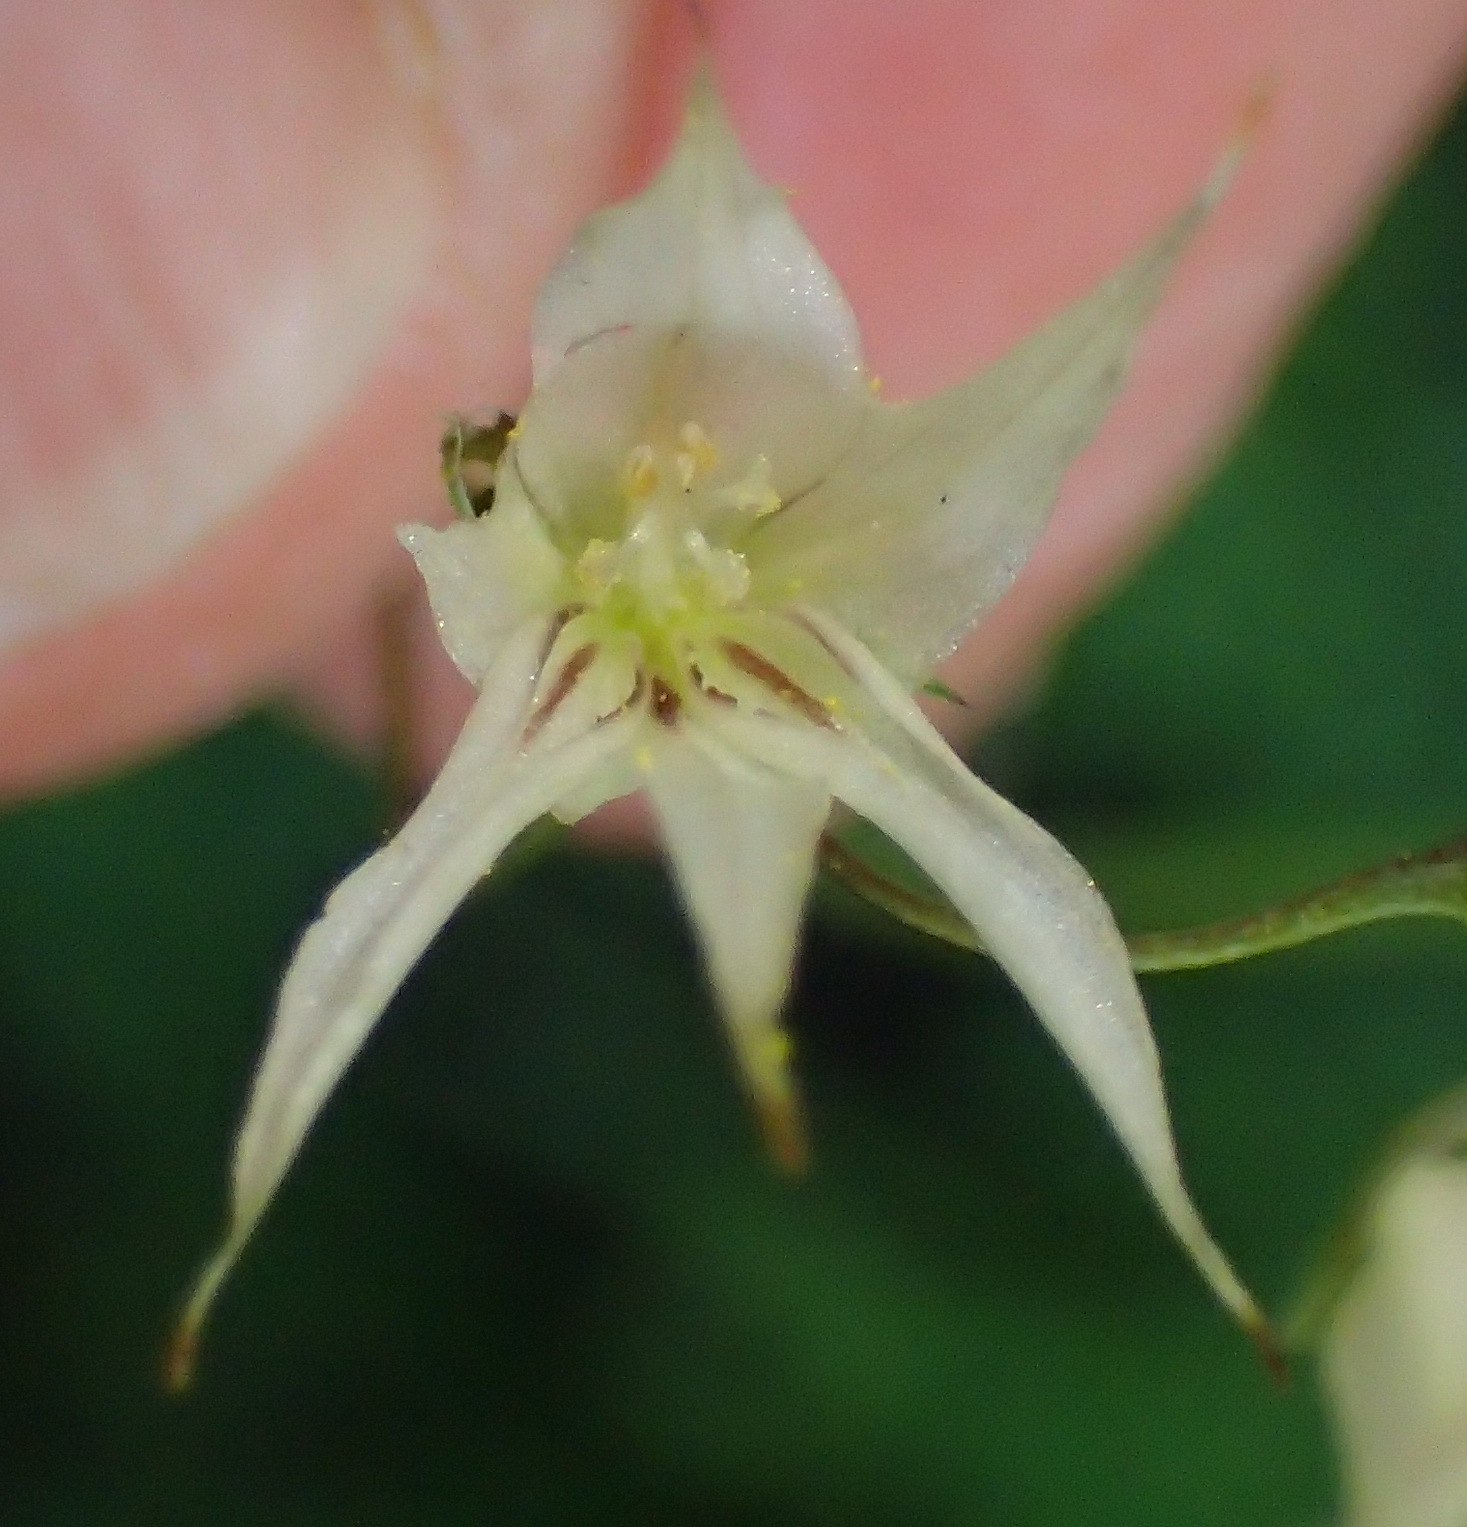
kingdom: Plantae
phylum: Tracheophyta
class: Liliopsida
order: Asparagales
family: Iridaceae
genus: Melasphaerula
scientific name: Melasphaerula graminea
